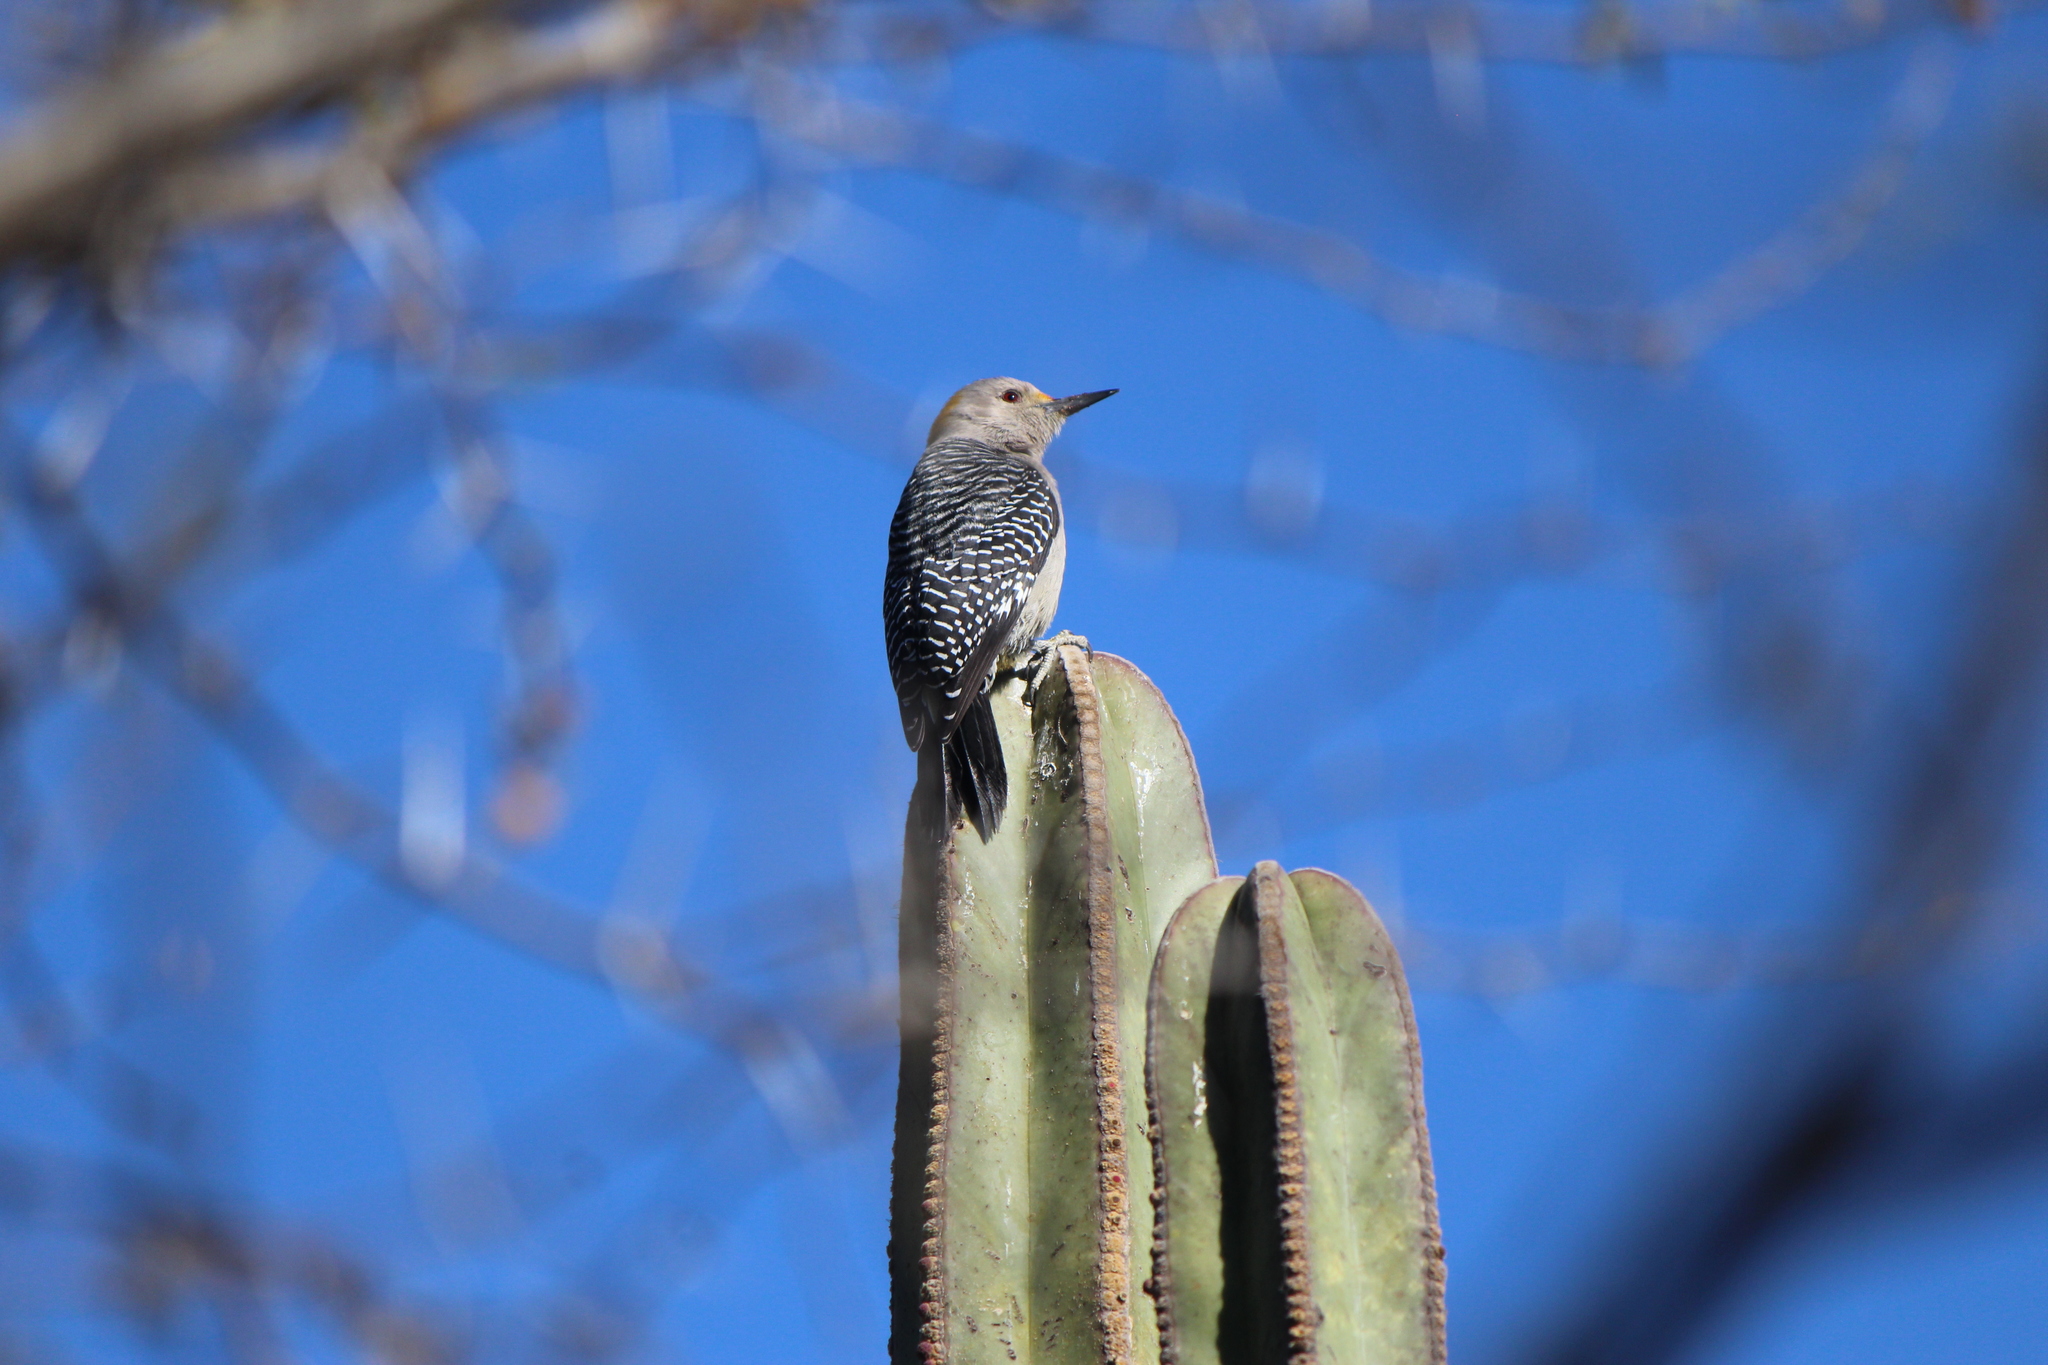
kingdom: Animalia
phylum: Chordata
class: Aves
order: Piciformes
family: Picidae
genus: Melanerpes
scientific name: Melanerpes aurifrons
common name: Golden-fronted woodpecker
